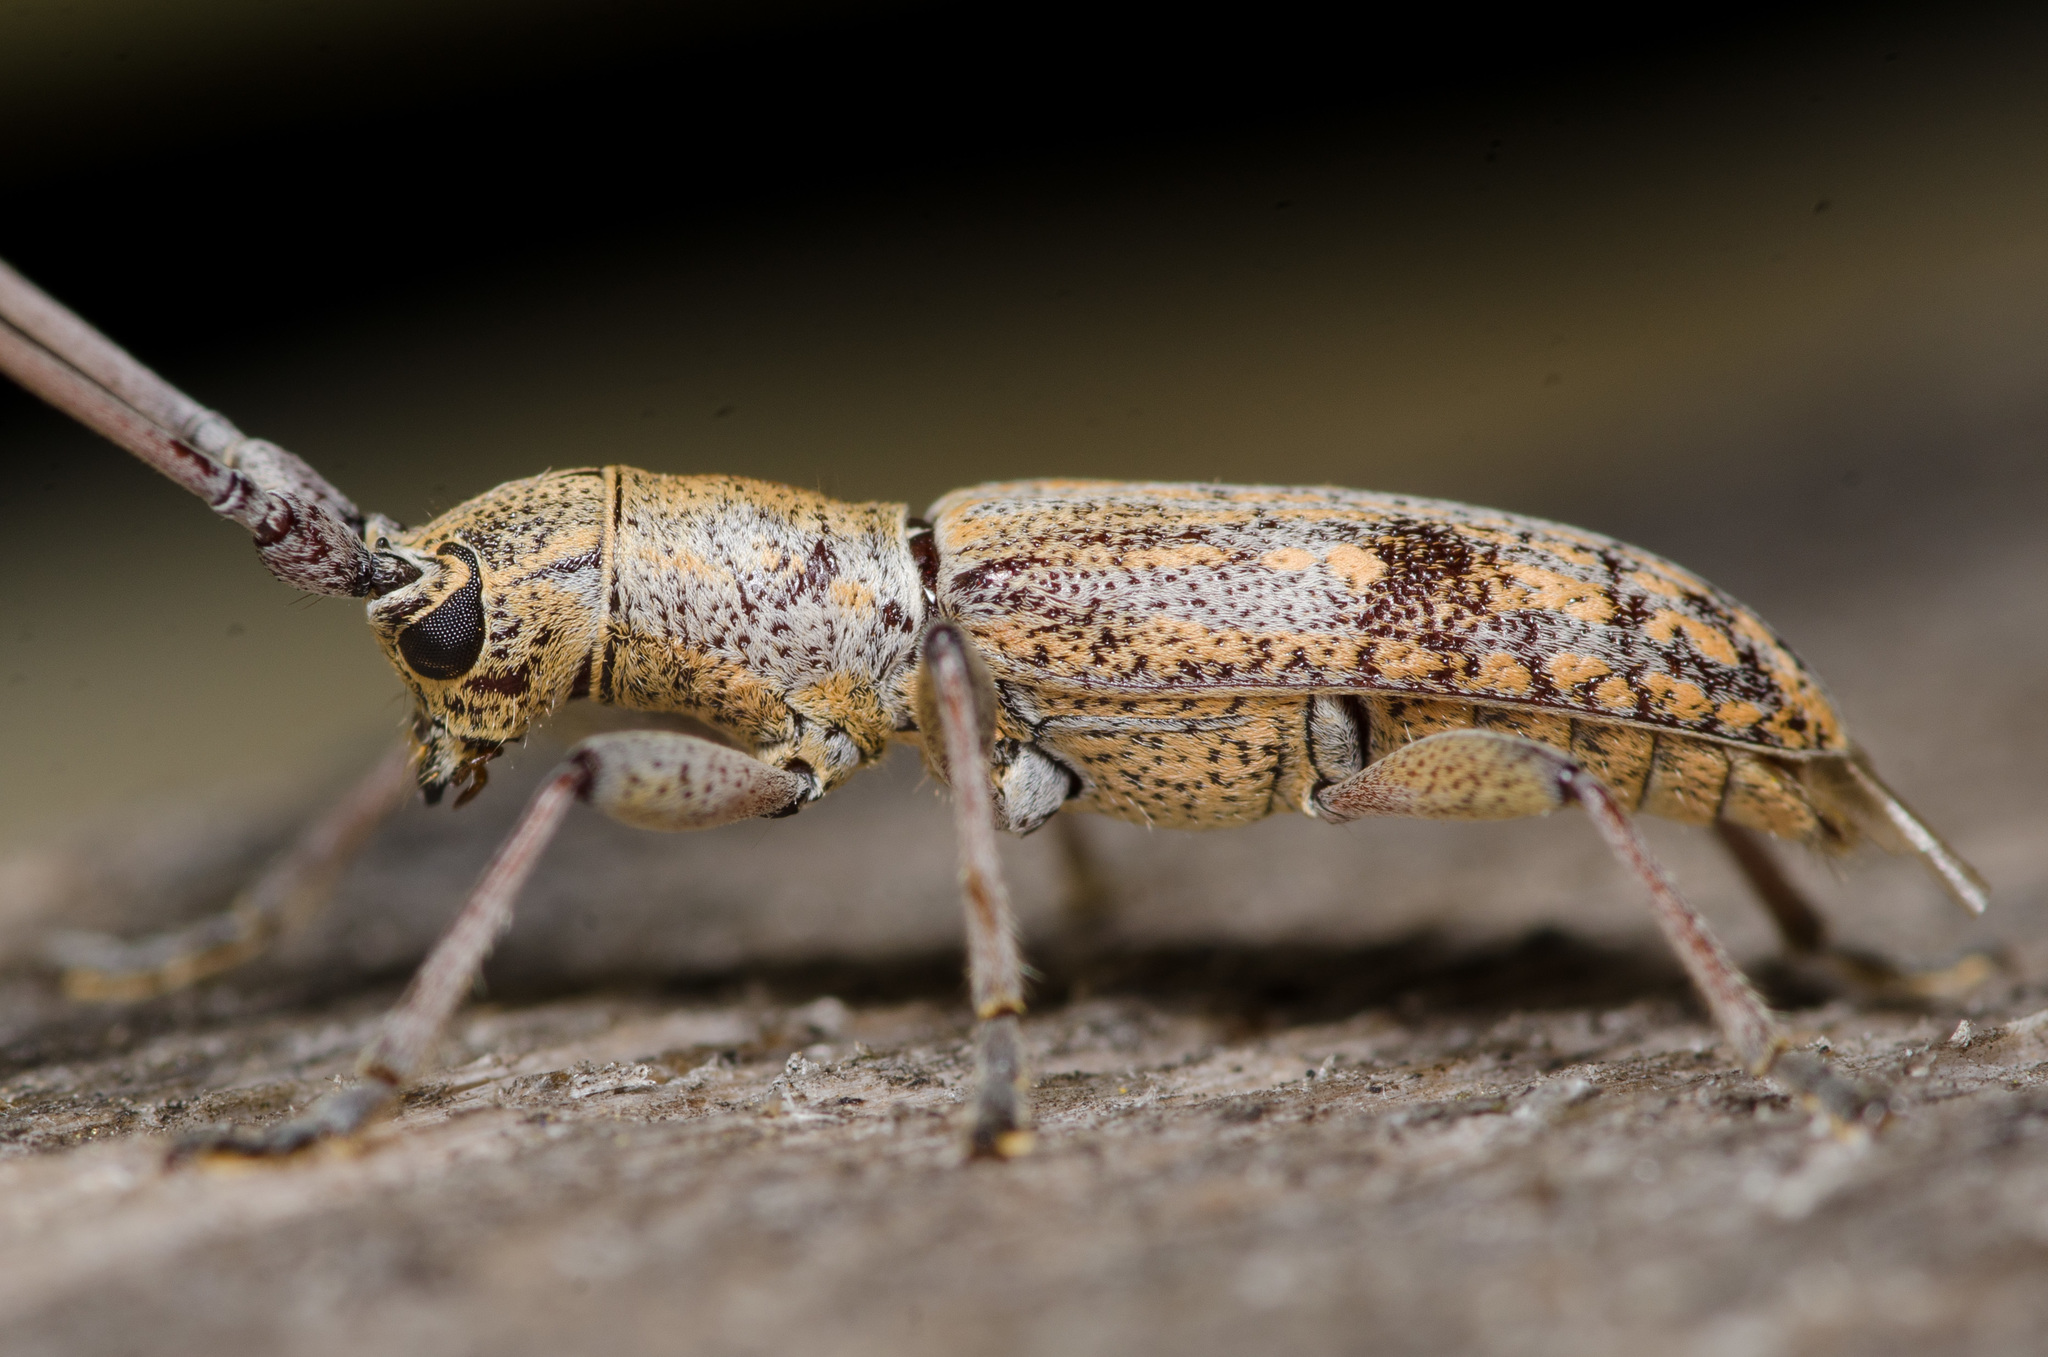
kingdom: Animalia
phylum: Arthropoda
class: Insecta
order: Coleoptera
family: Cerambycidae
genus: Dorcaschema
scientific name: Dorcaschema alternatum
